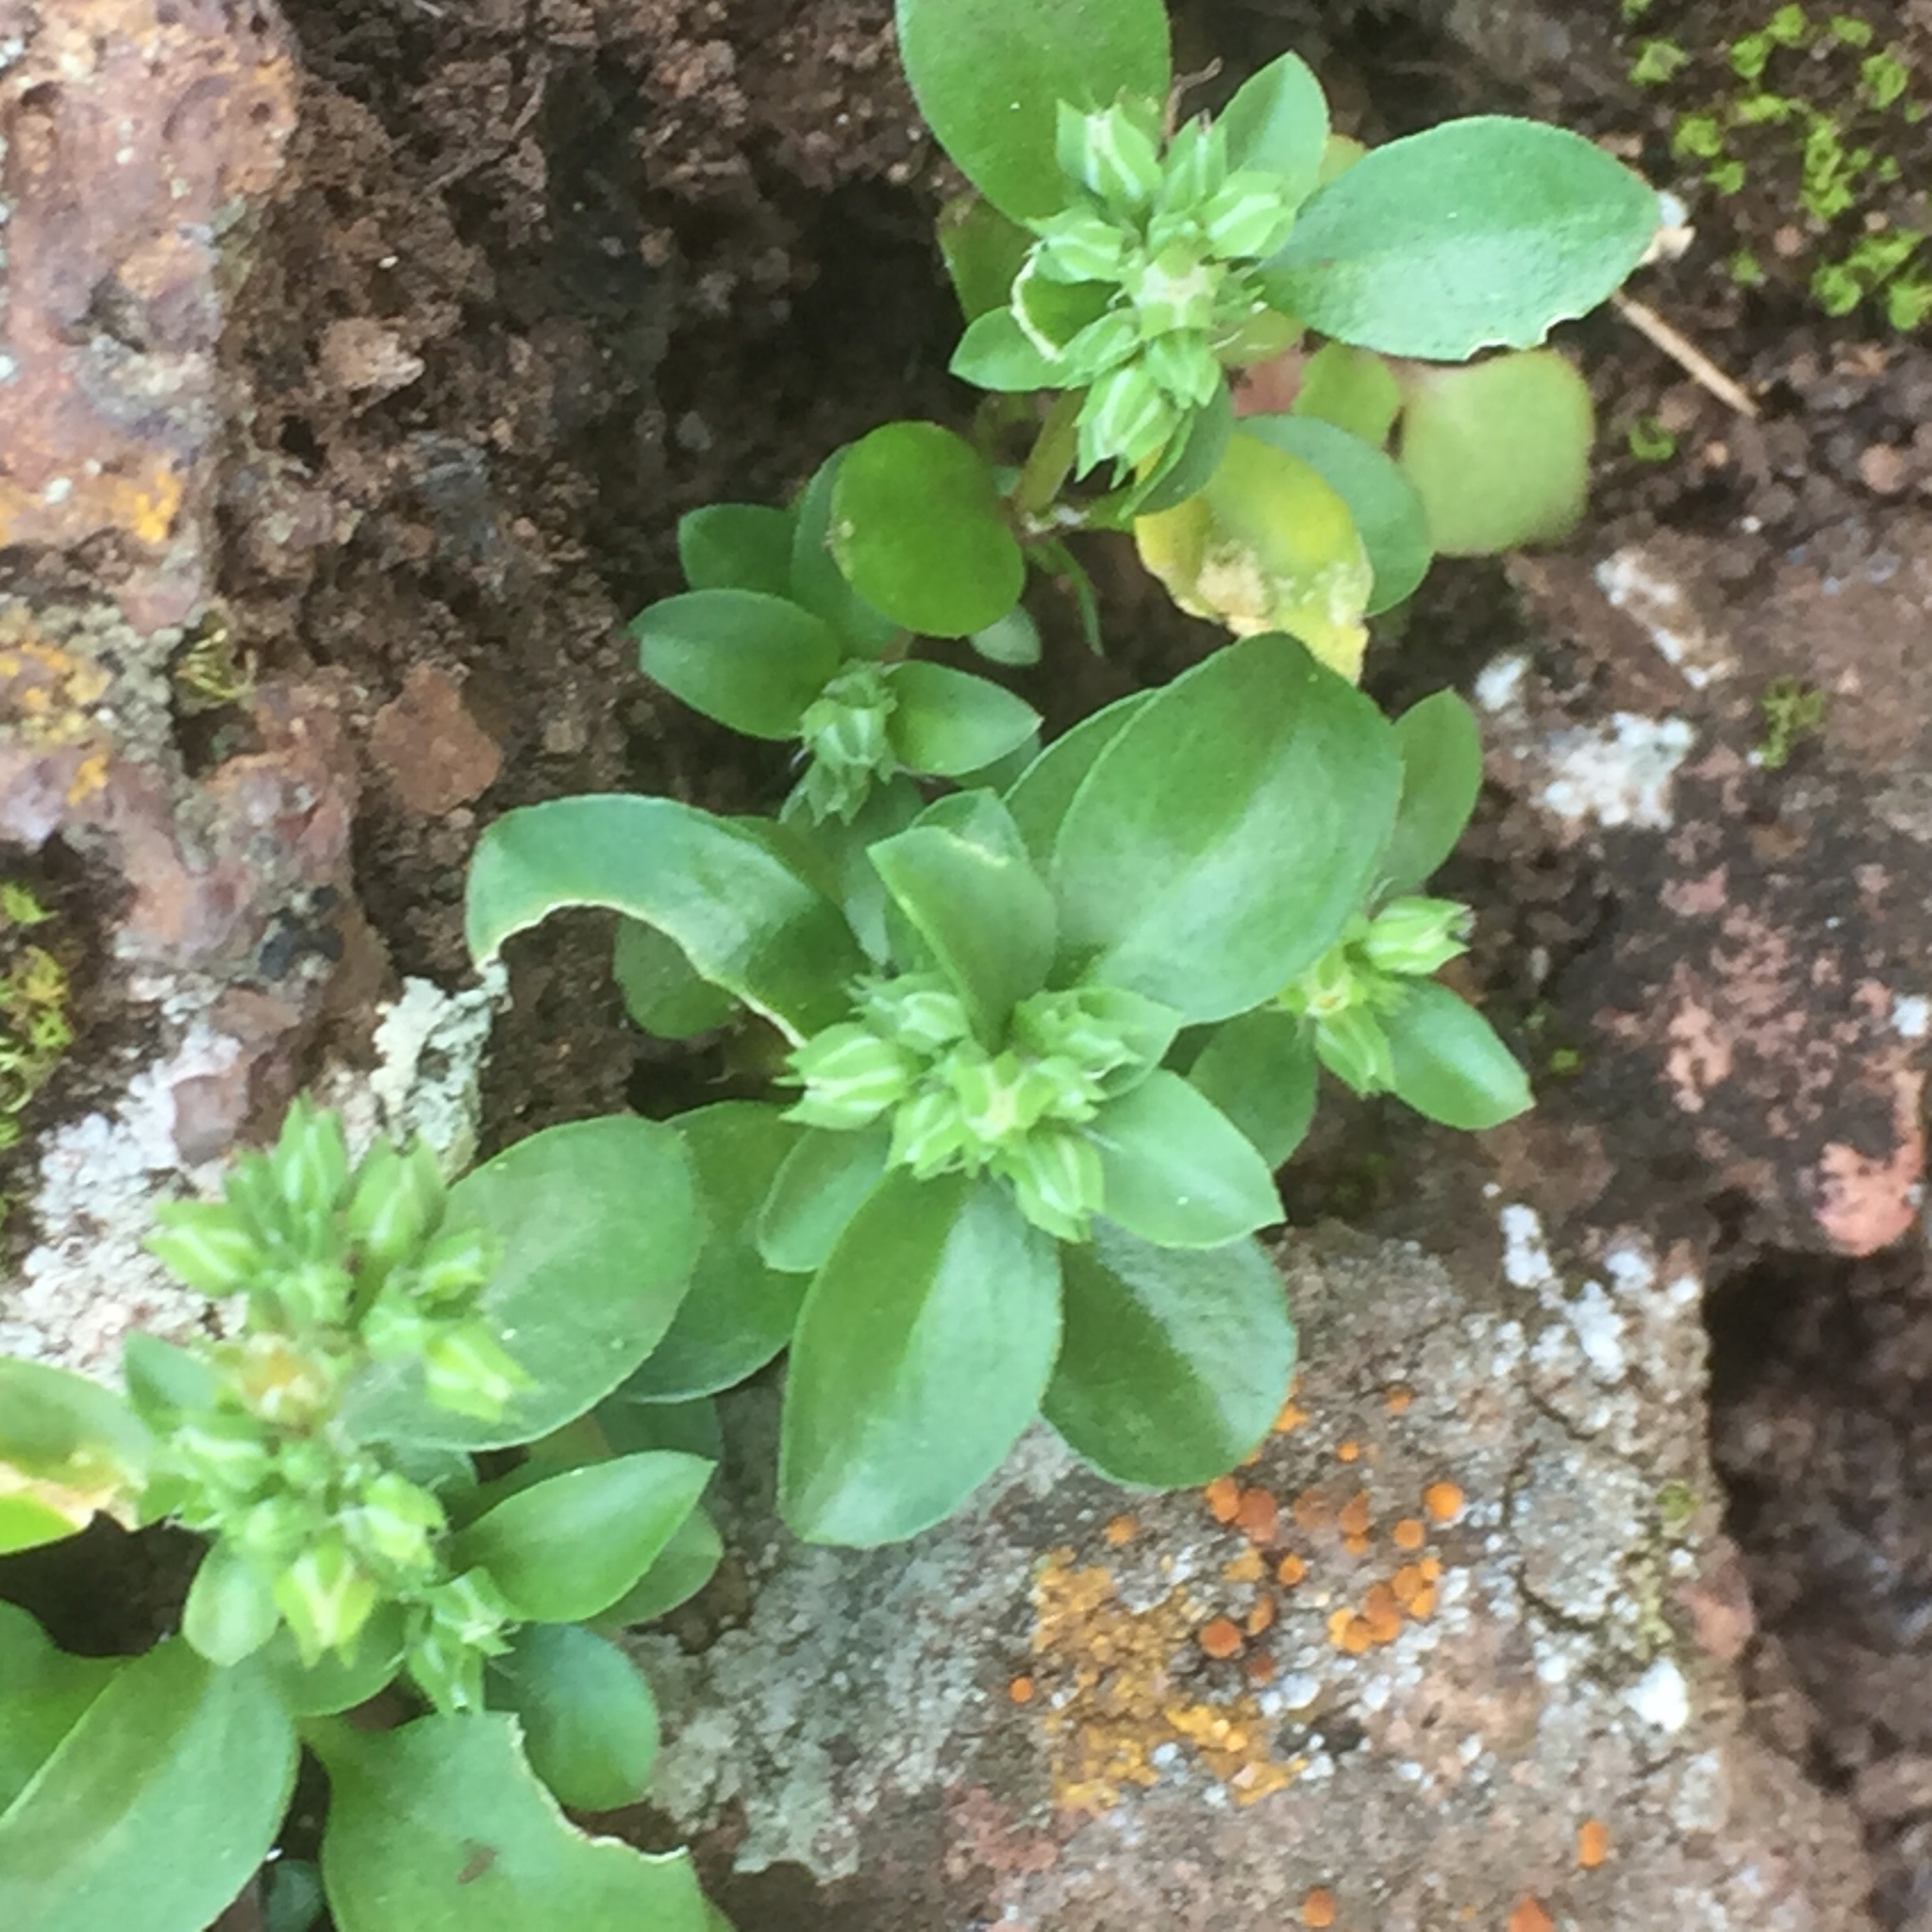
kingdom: Plantae
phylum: Tracheophyta
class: Magnoliopsida
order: Caryophyllales
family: Caryophyllaceae
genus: Polycarpon
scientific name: Polycarpon tetraphyllum
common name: Four-leaved all-seed
